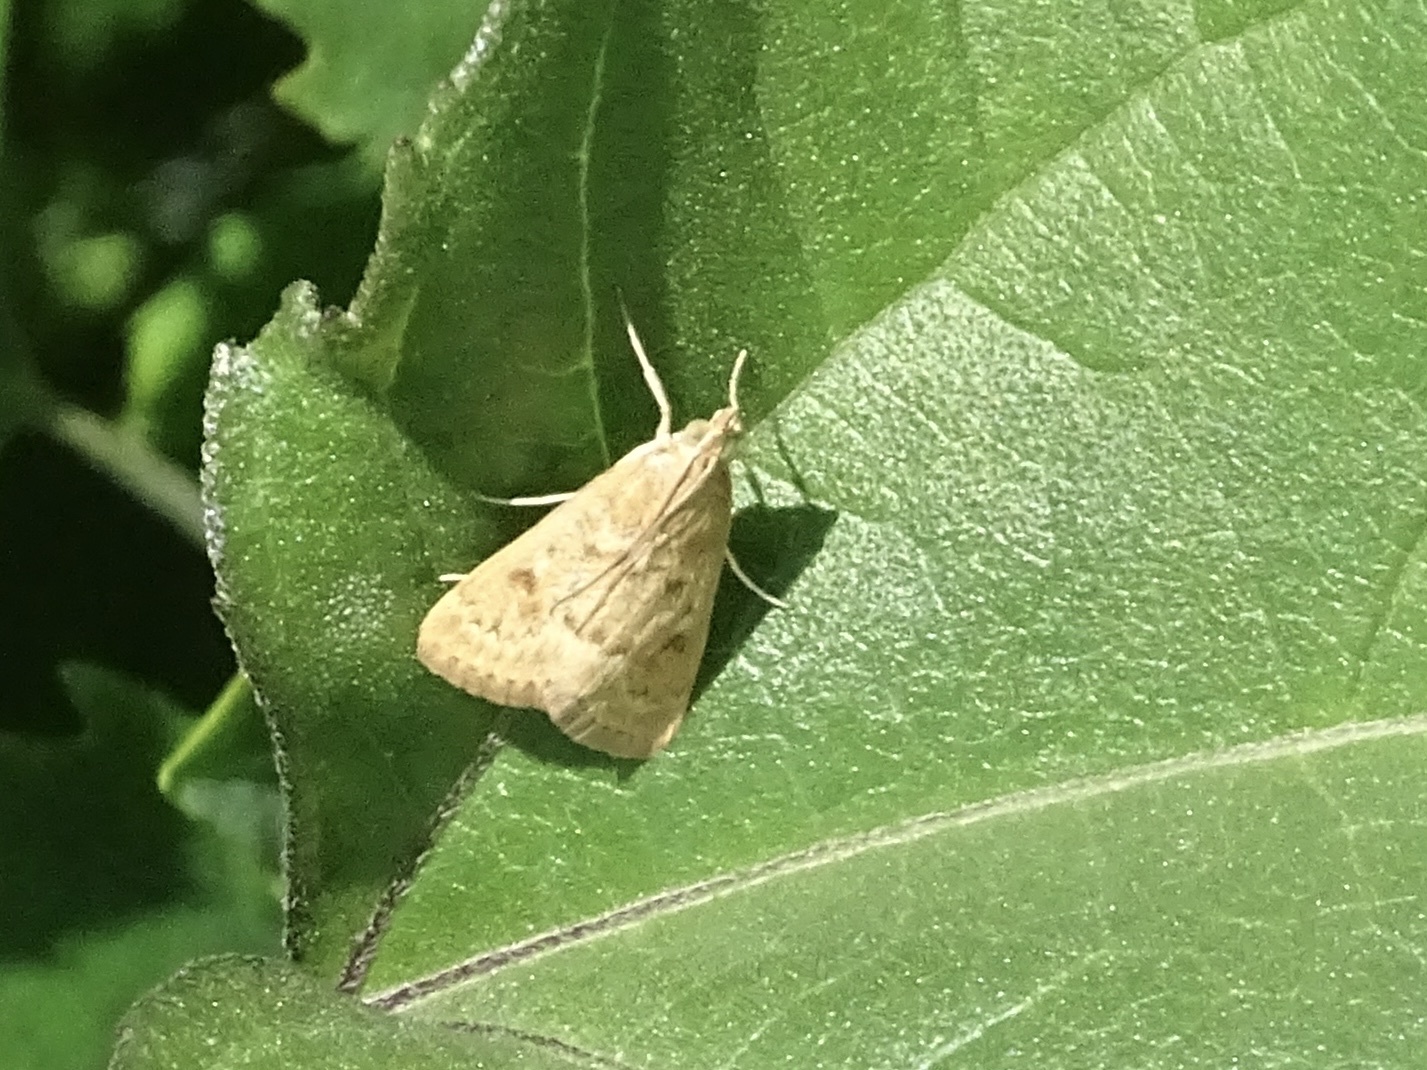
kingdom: Animalia
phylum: Arthropoda
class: Insecta
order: Lepidoptera
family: Crambidae
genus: Achyra
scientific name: Achyra rantalis
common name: Garden webworm
